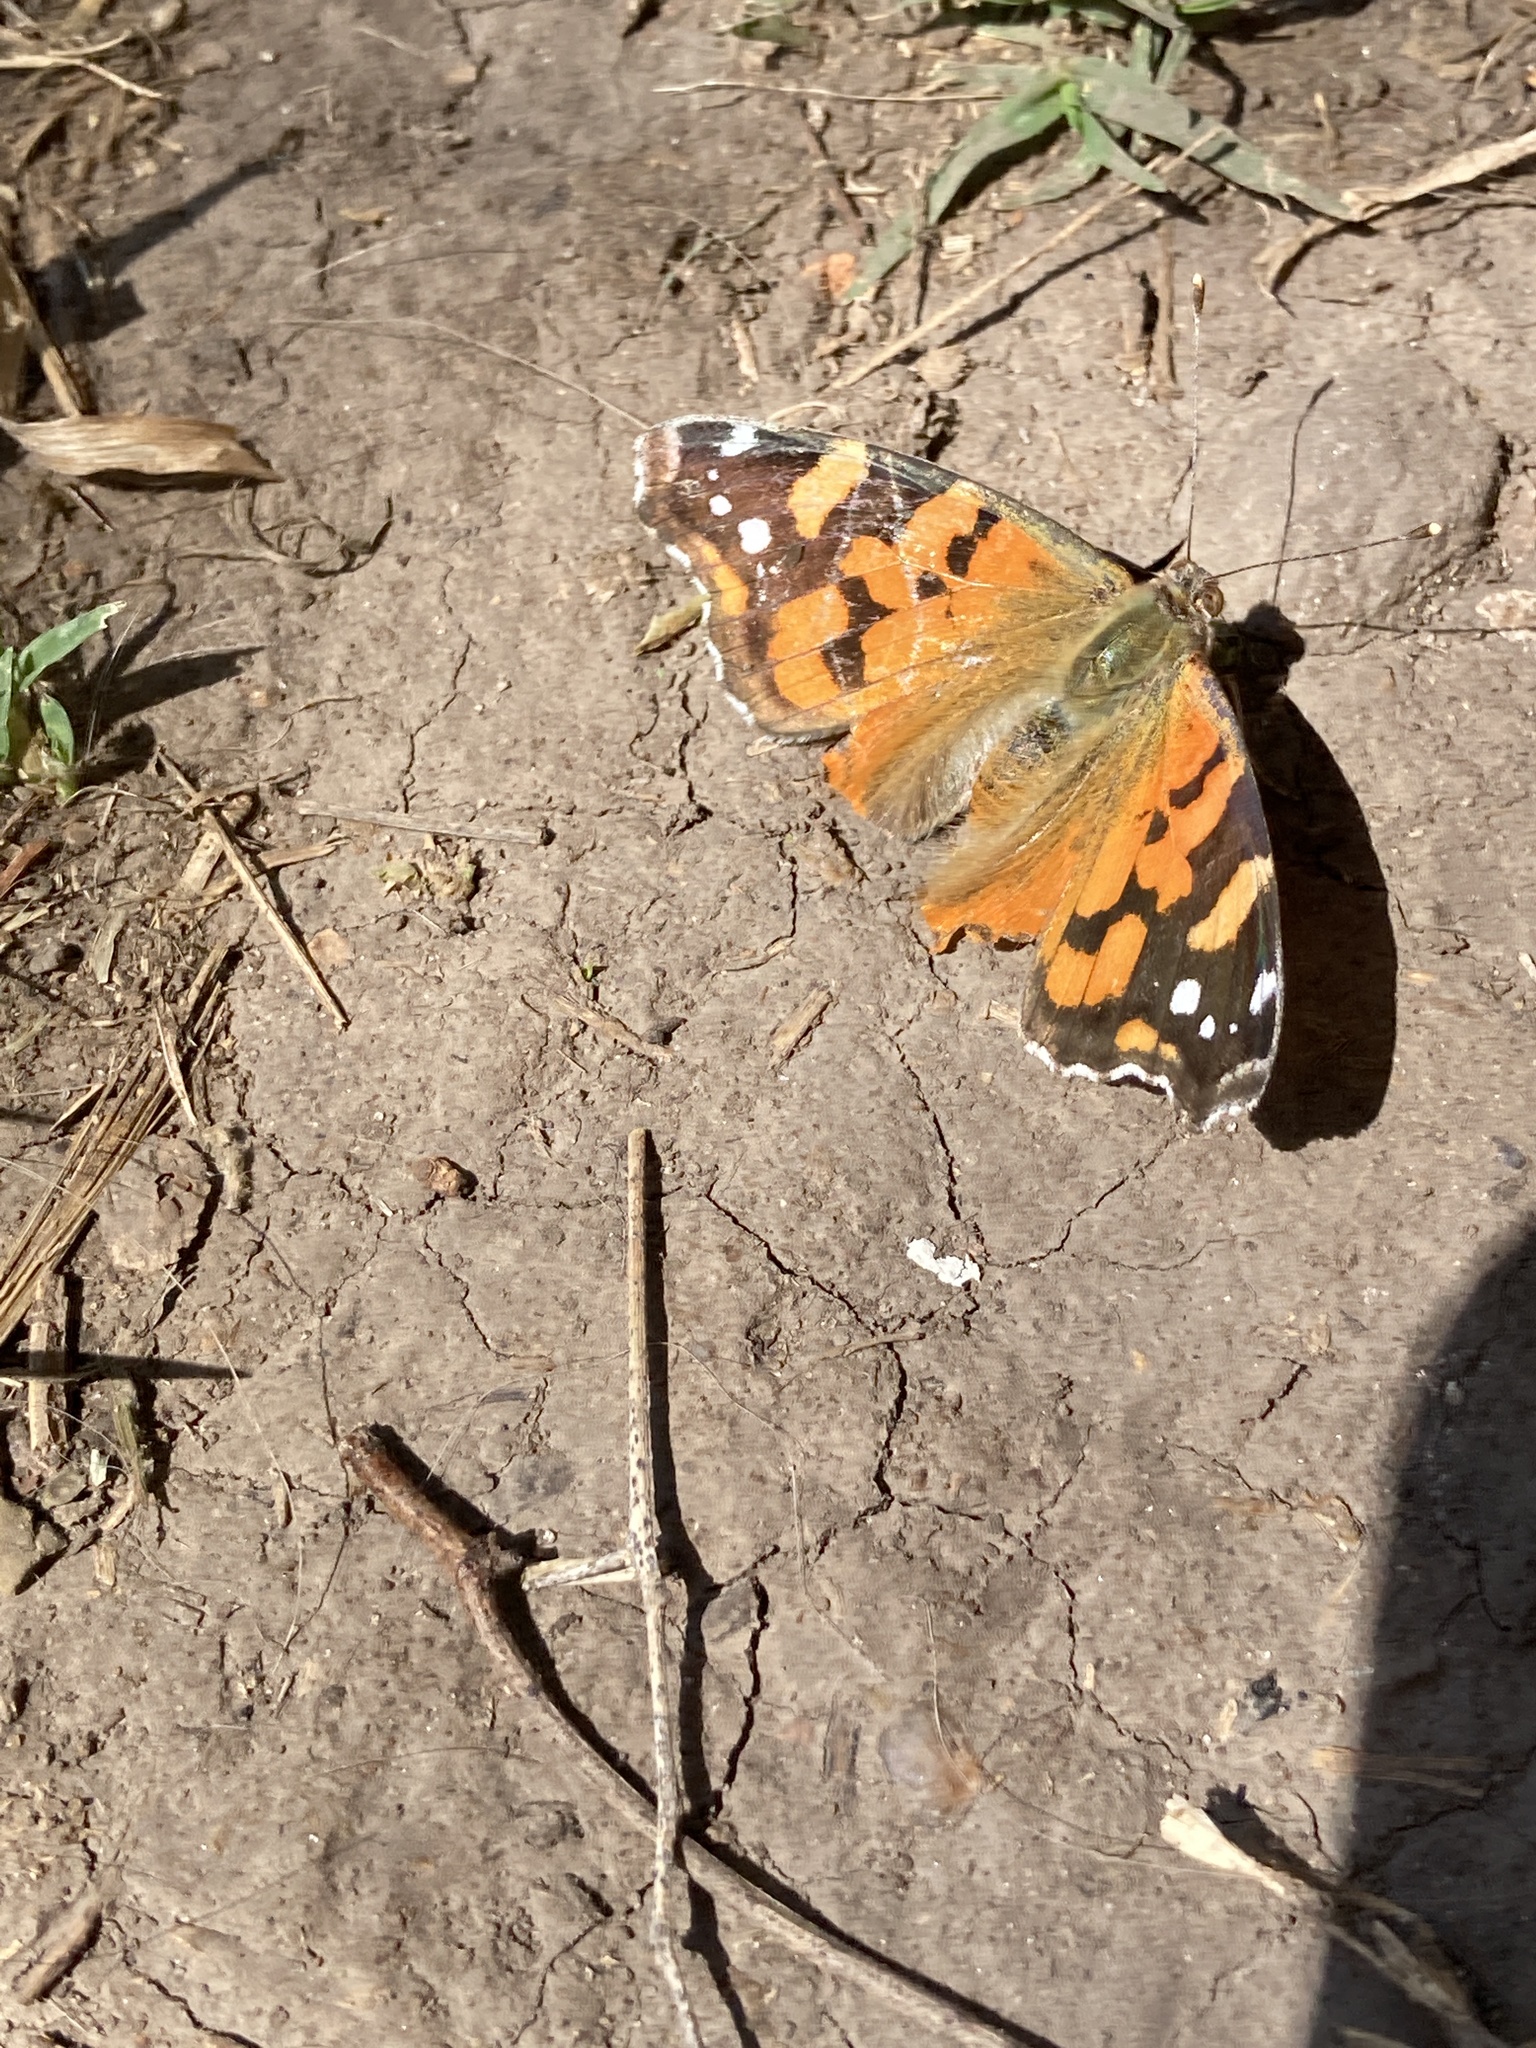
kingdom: Animalia
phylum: Arthropoda
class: Insecta
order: Lepidoptera
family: Nymphalidae
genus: Vanessa
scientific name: Vanessa carye
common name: Subtropical lady
